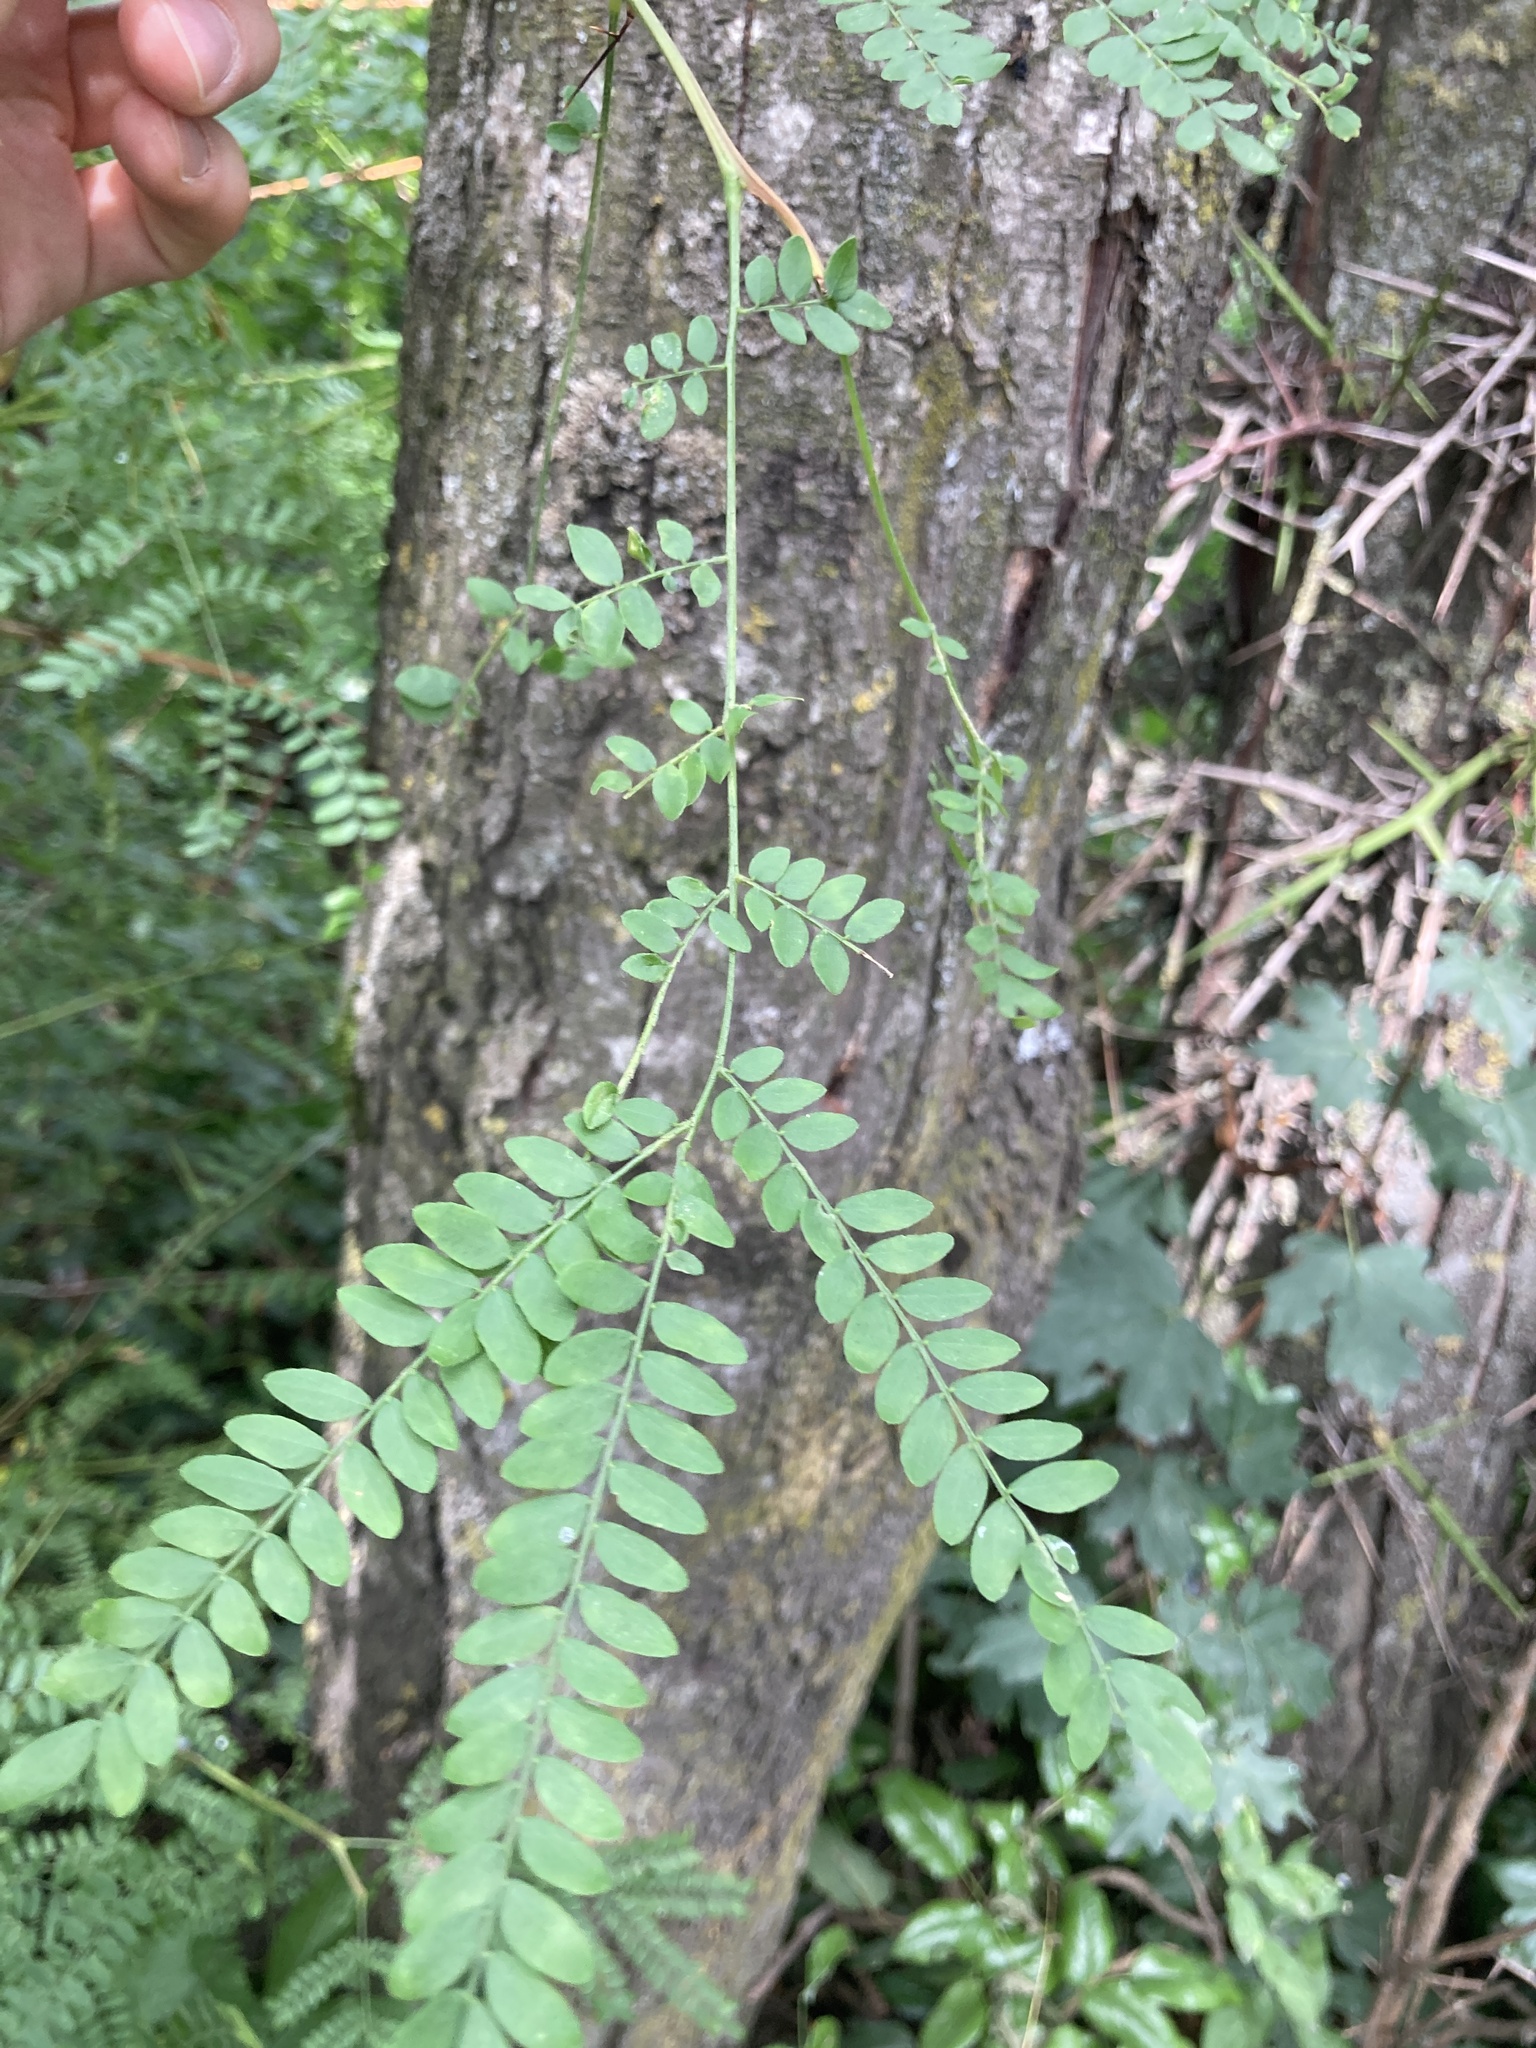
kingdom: Plantae
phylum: Tracheophyta
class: Magnoliopsida
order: Fabales
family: Fabaceae
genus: Gleditsia
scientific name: Gleditsia triacanthos
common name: Common honeylocust
